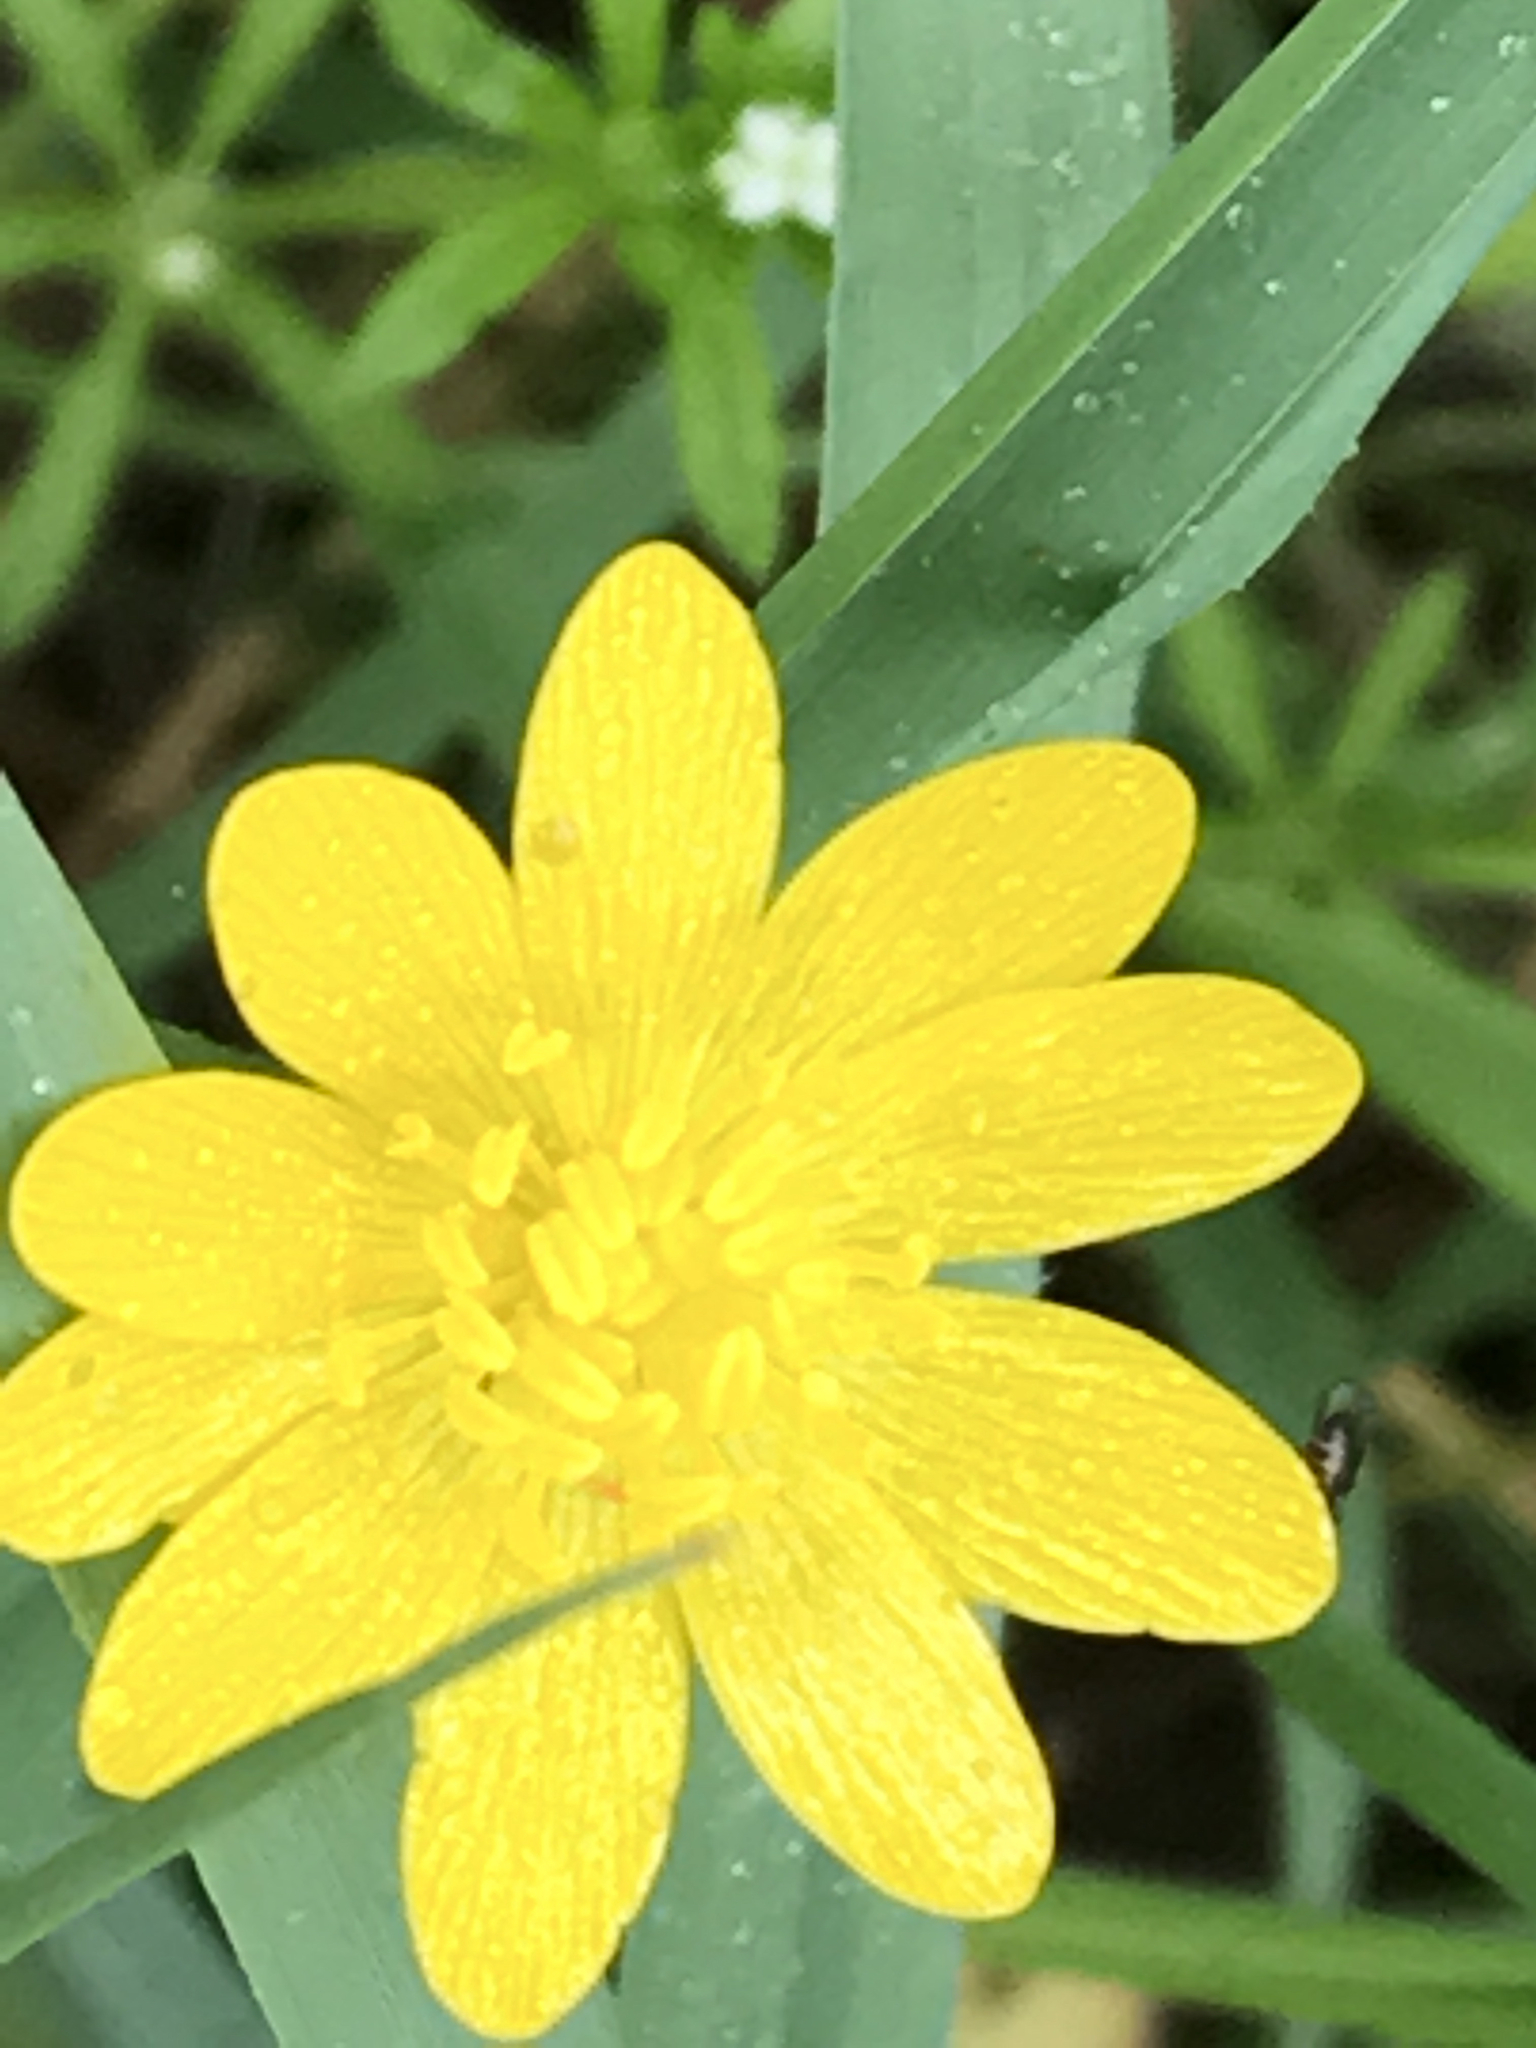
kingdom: Plantae
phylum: Tracheophyta
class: Magnoliopsida
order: Ranunculales
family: Ranunculaceae
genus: Ranunculus
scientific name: Ranunculus californicus
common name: California buttercup
